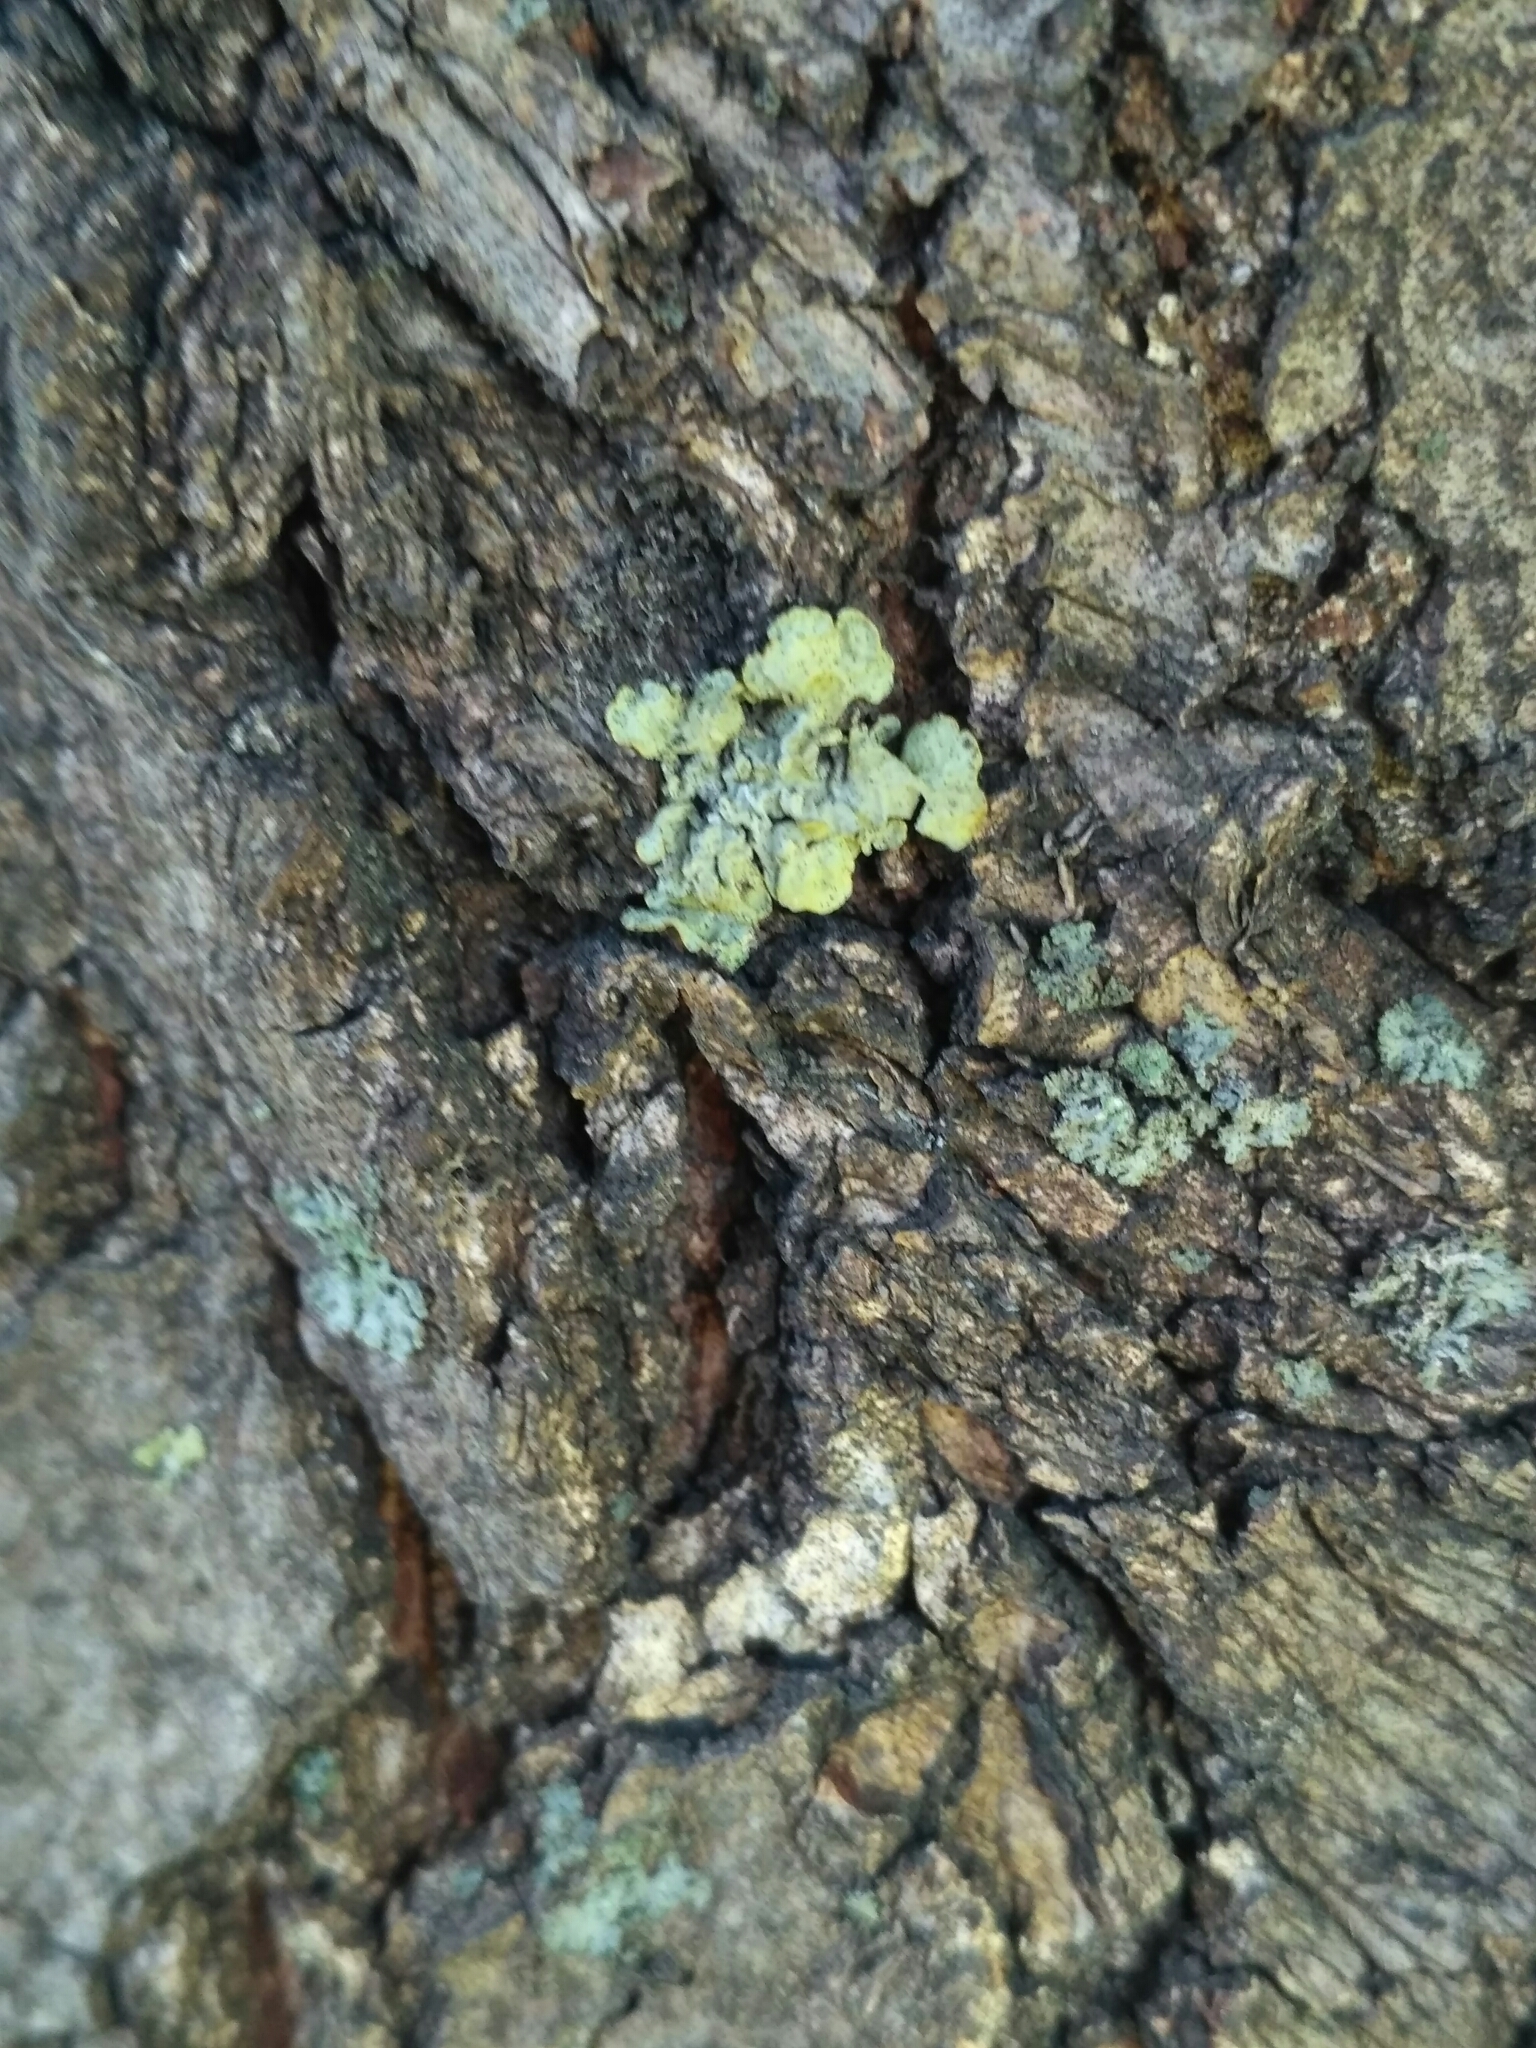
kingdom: Fungi
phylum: Ascomycota
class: Lecanoromycetes
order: Teloschistales
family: Teloschistaceae
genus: Xanthoria
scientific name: Xanthoria parietina
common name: Common orange lichen
